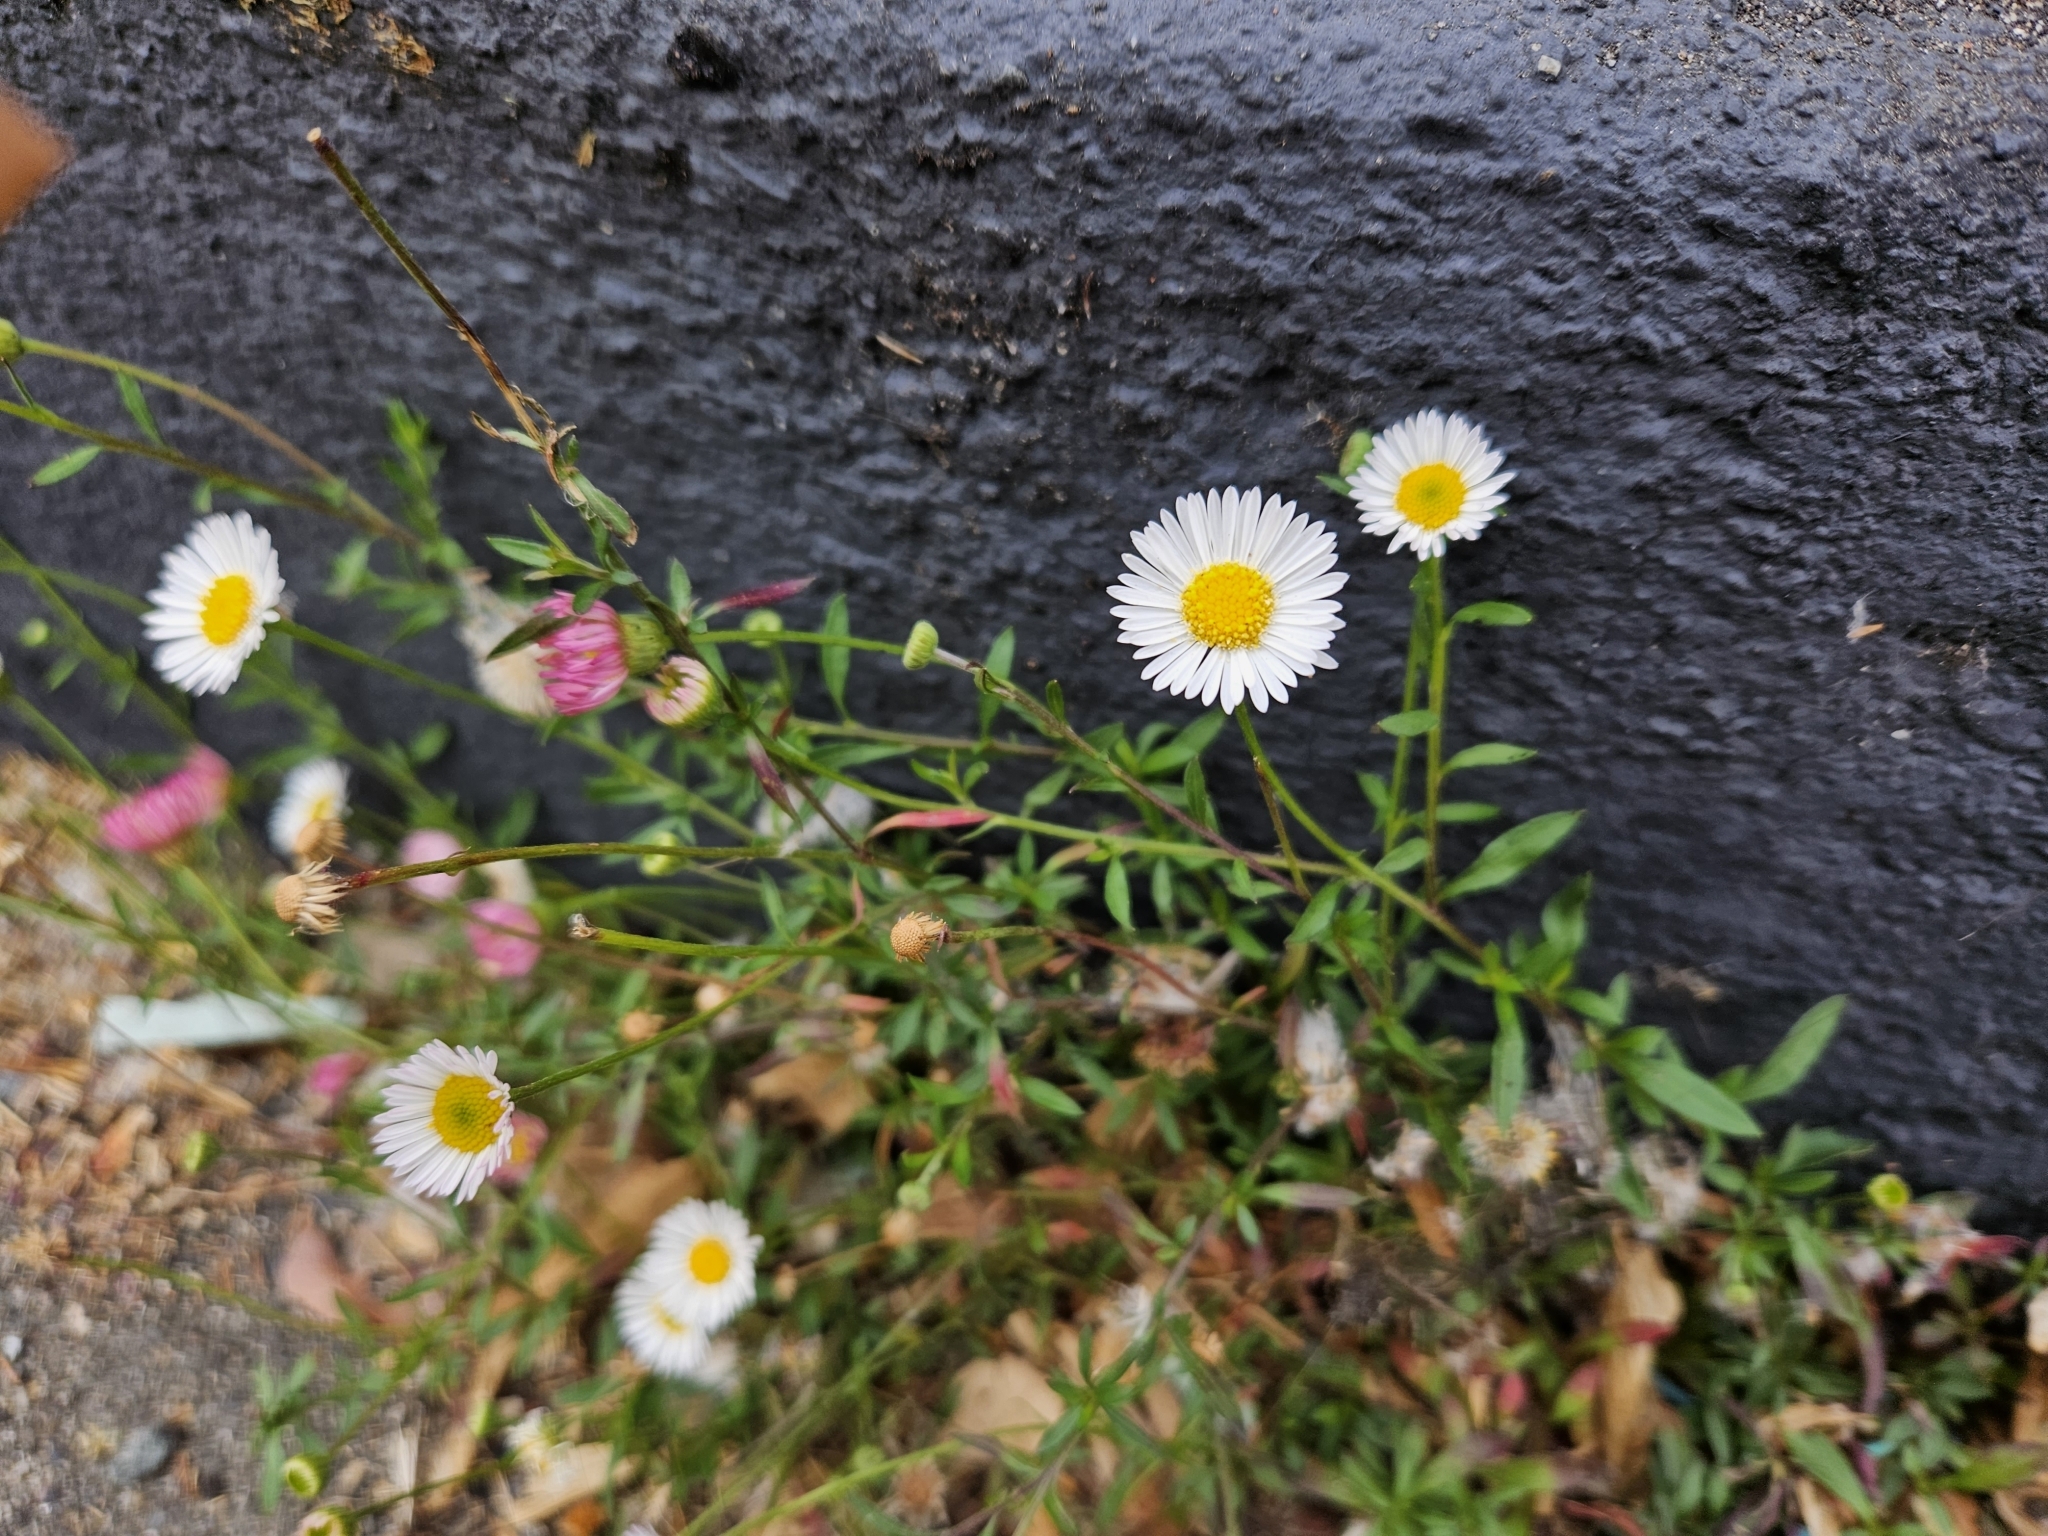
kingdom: Plantae
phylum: Tracheophyta
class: Magnoliopsida
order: Asterales
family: Asteraceae
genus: Erigeron
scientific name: Erigeron karvinskianus
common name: Mexican fleabane
